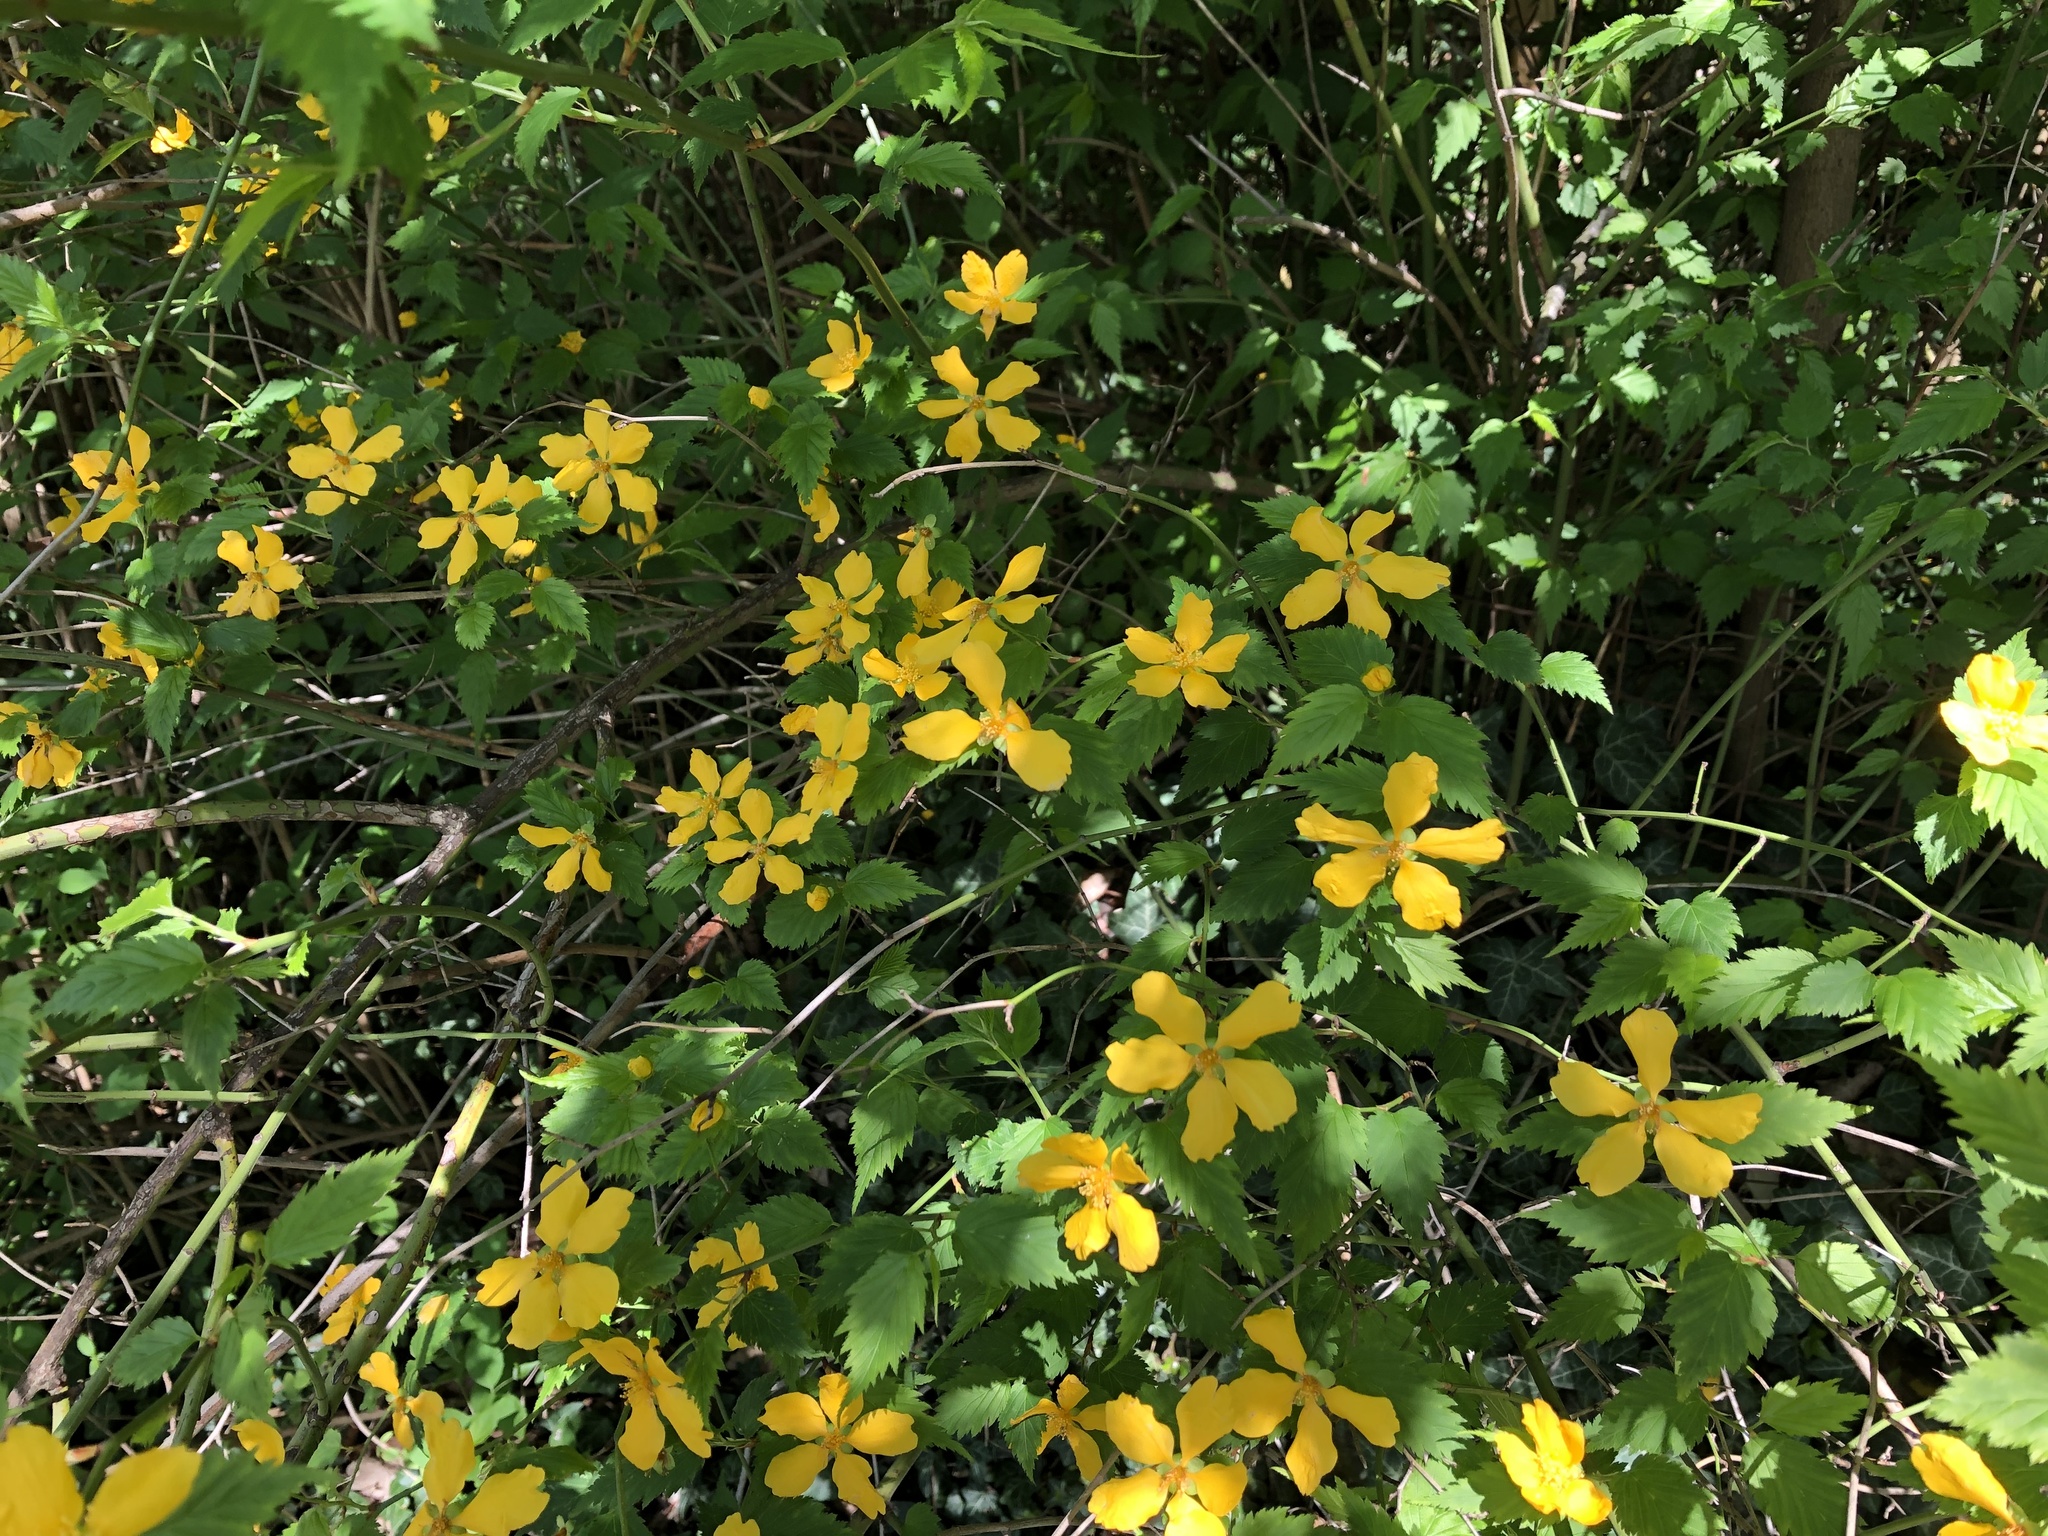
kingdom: Plantae
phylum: Tracheophyta
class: Magnoliopsida
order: Rosales
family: Rosaceae
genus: Kerria
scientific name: Kerria japonica
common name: Japanese kerria
